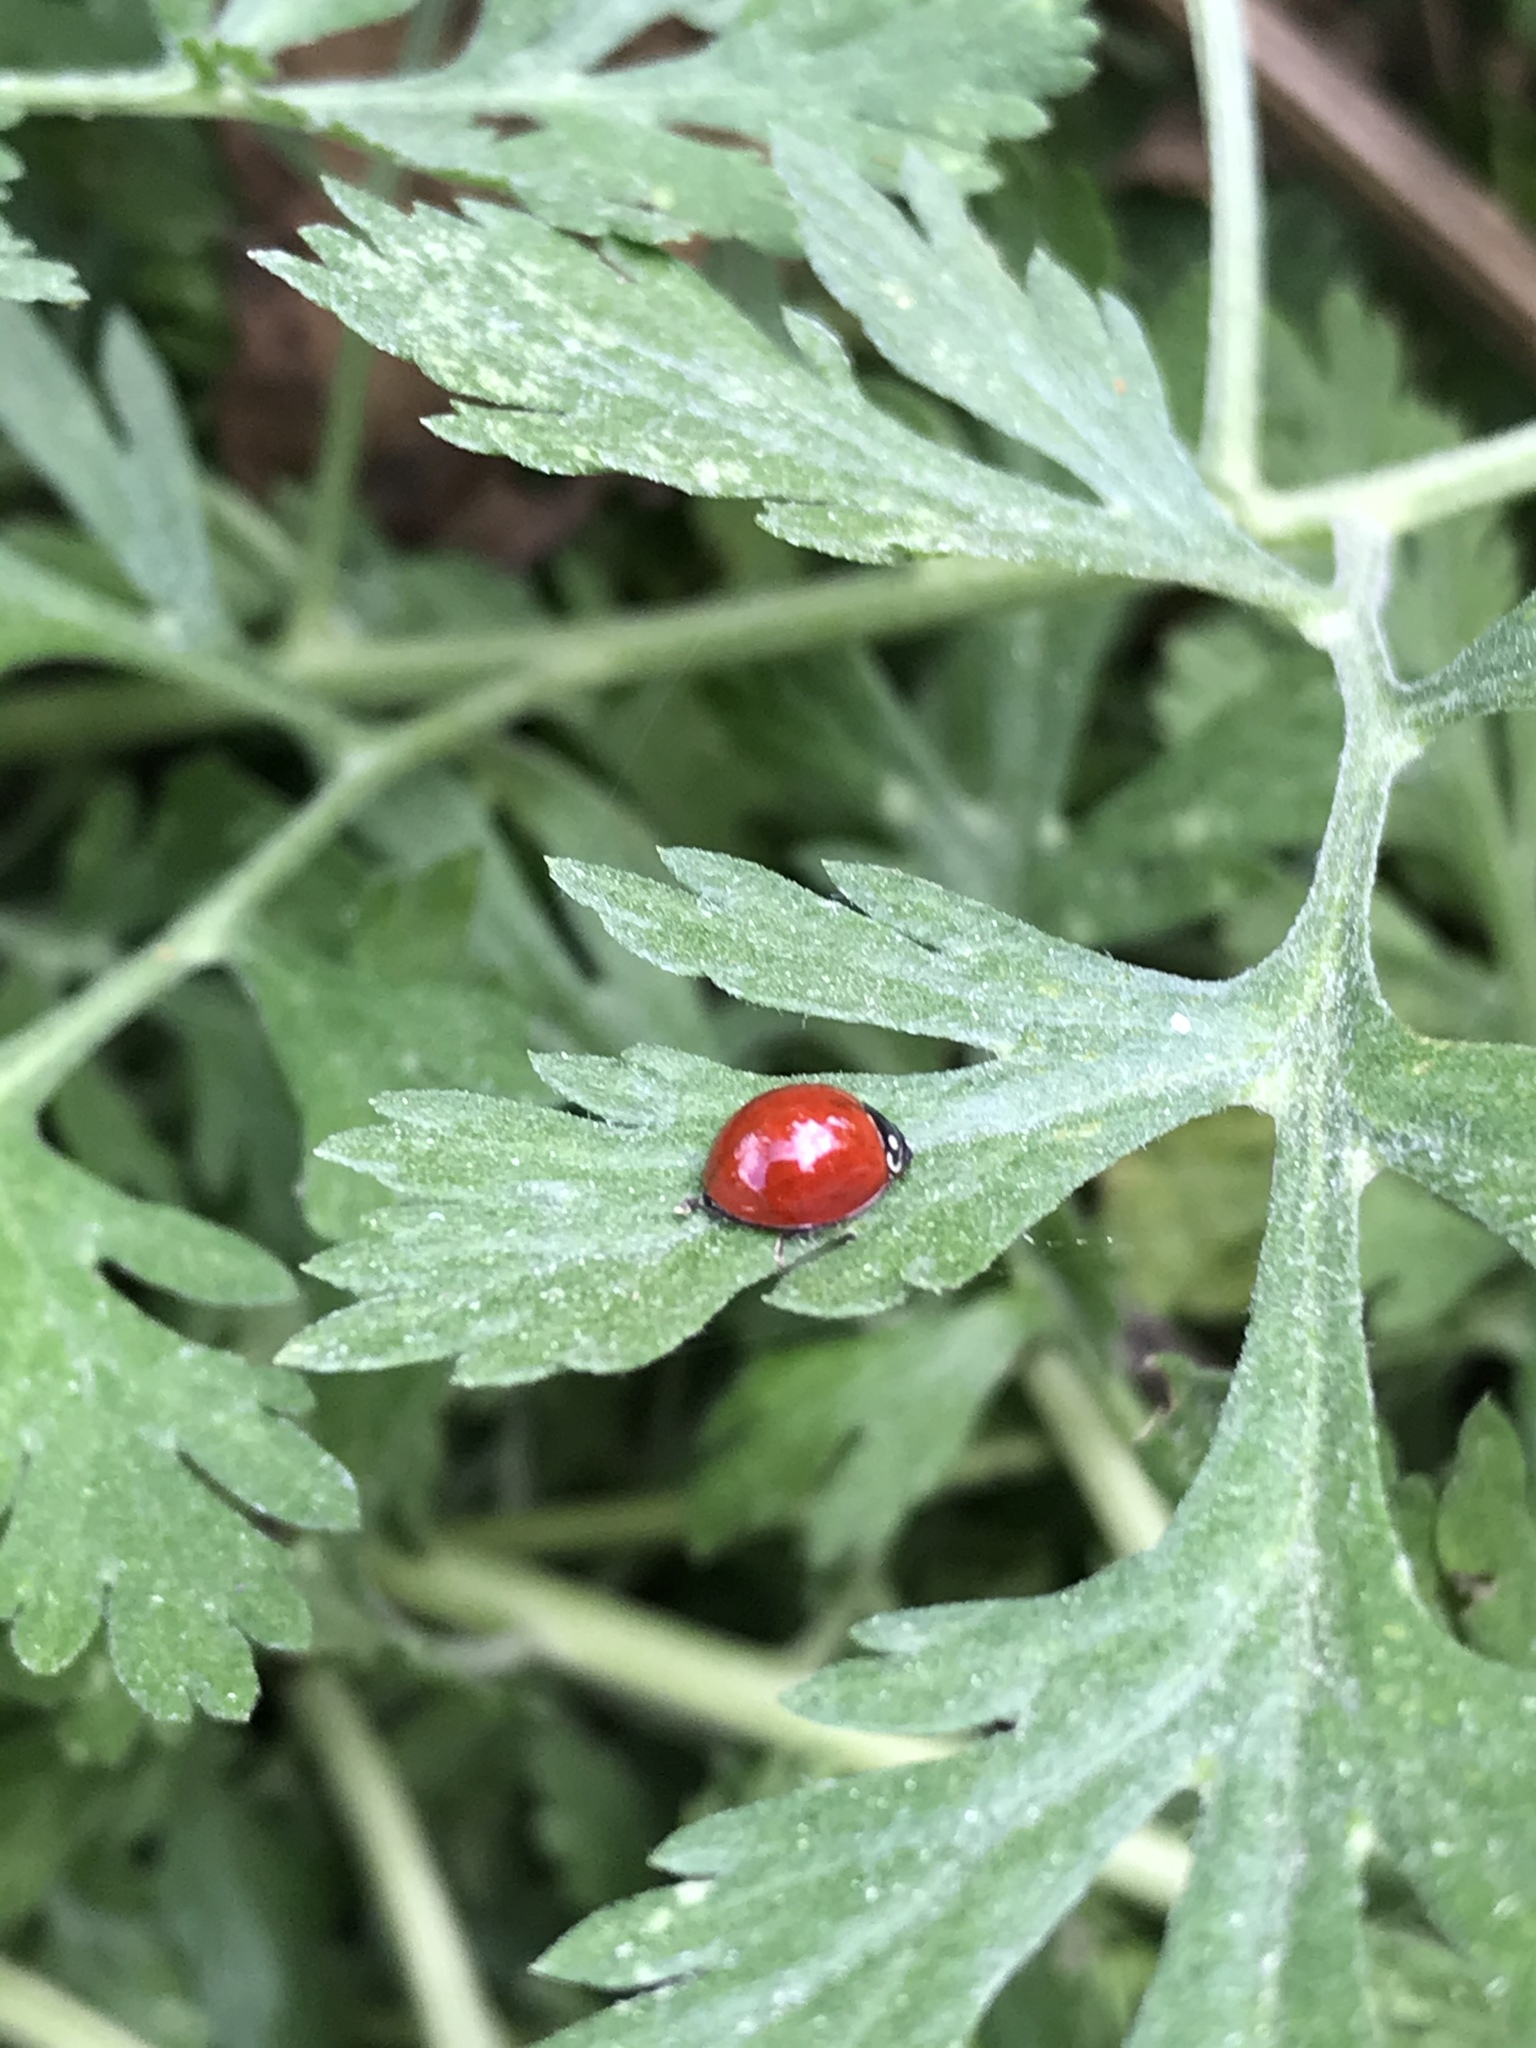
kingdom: Animalia
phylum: Arthropoda
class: Insecta
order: Coleoptera
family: Coccinellidae
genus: Cycloneda
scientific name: Cycloneda sanguinea
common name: Ladybird beetle
